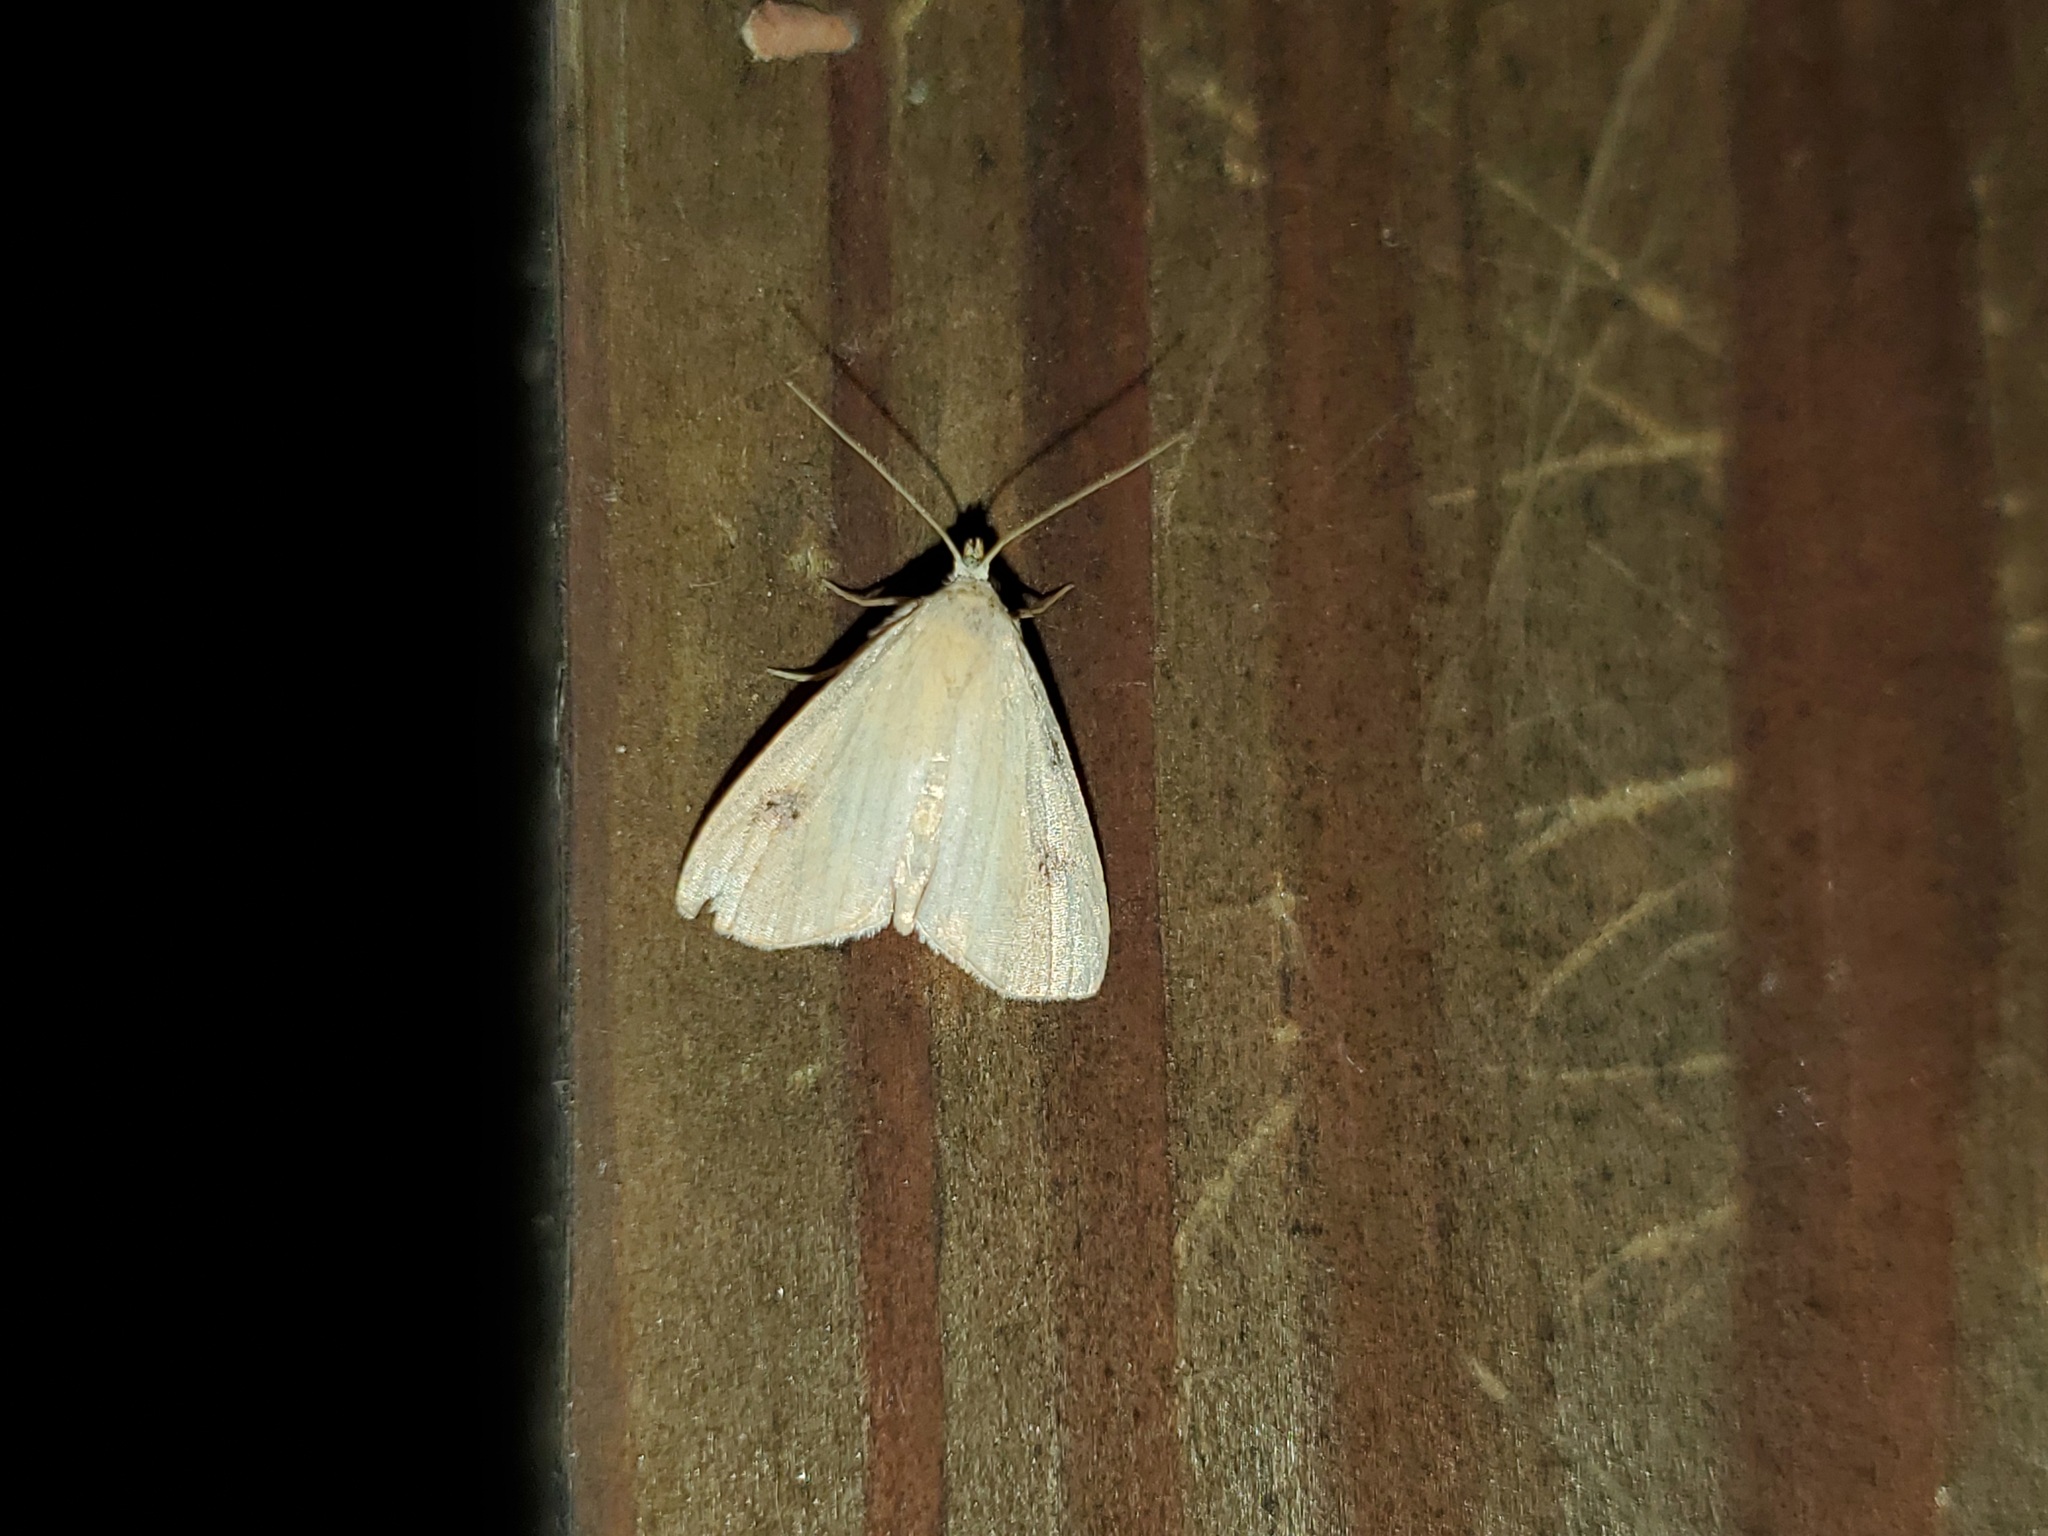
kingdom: Animalia
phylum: Arthropoda
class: Insecta
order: Lepidoptera
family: Erebidae
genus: Rivula
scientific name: Rivula propinqualis
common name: Spotted grass moth
